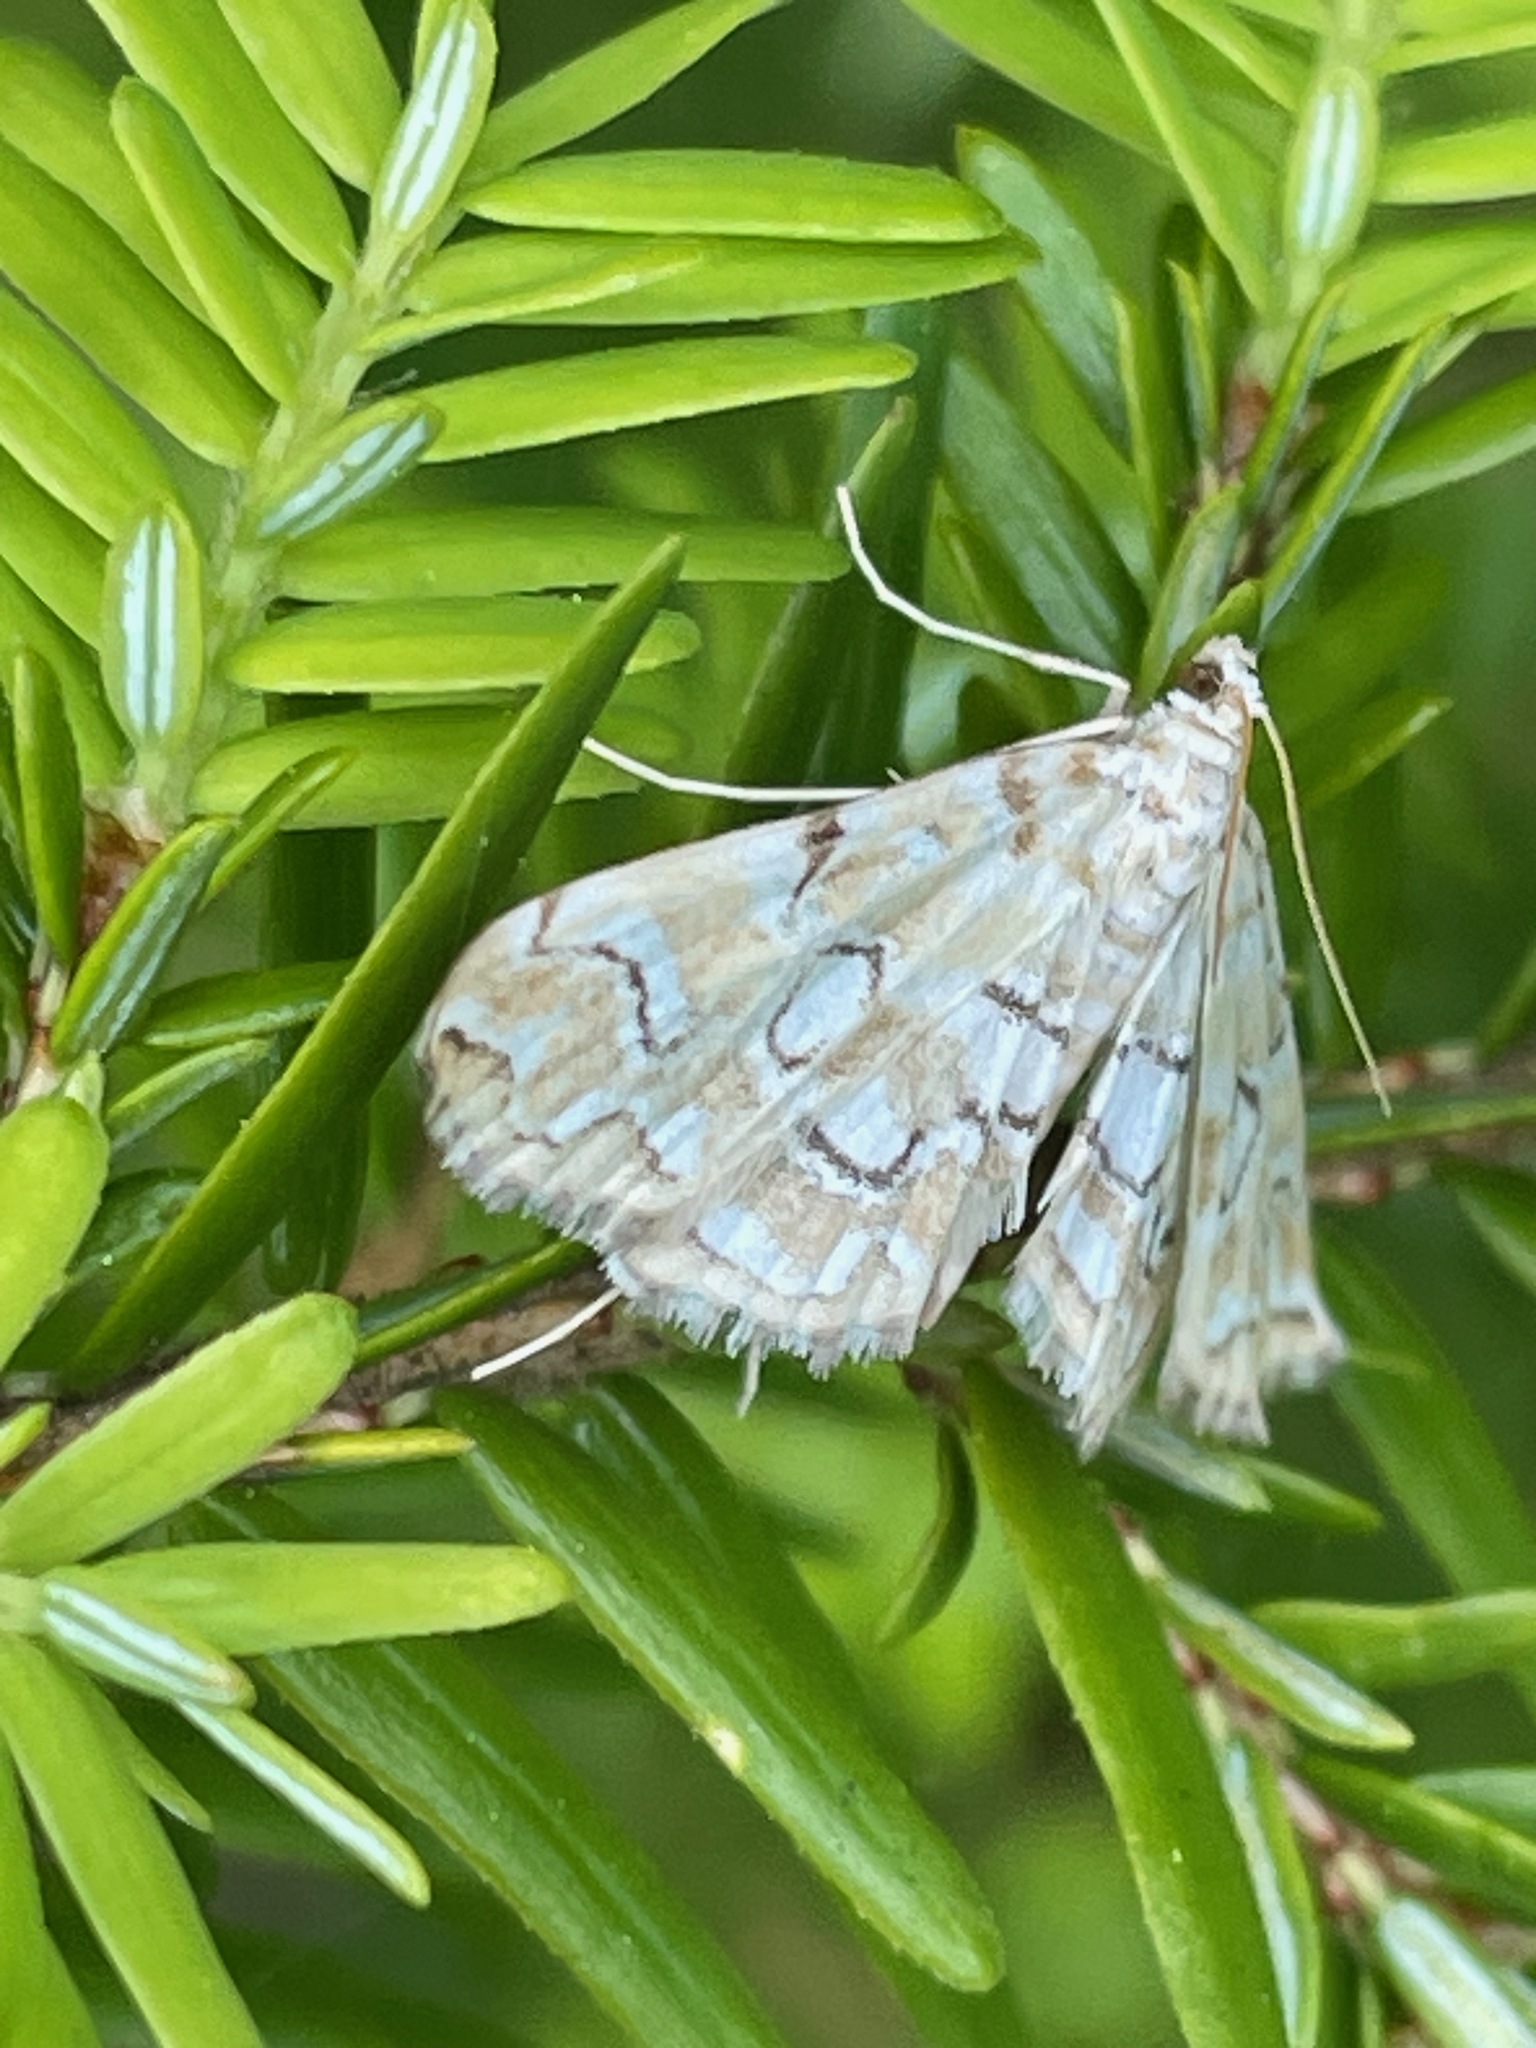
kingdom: Animalia
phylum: Arthropoda
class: Insecta
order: Lepidoptera
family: Crambidae
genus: Elophila
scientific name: Elophila icciusalis
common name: Pondside pyralid moth
